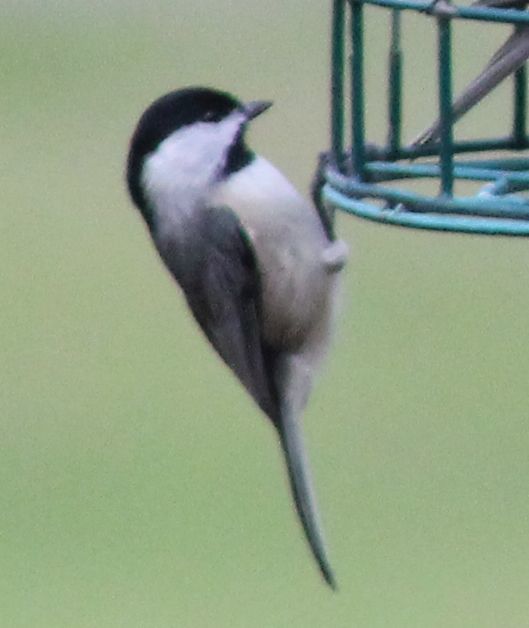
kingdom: Animalia
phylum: Chordata
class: Aves
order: Passeriformes
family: Paridae
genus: Poecile
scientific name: Poecile carolinensis
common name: Carolina chickadee
